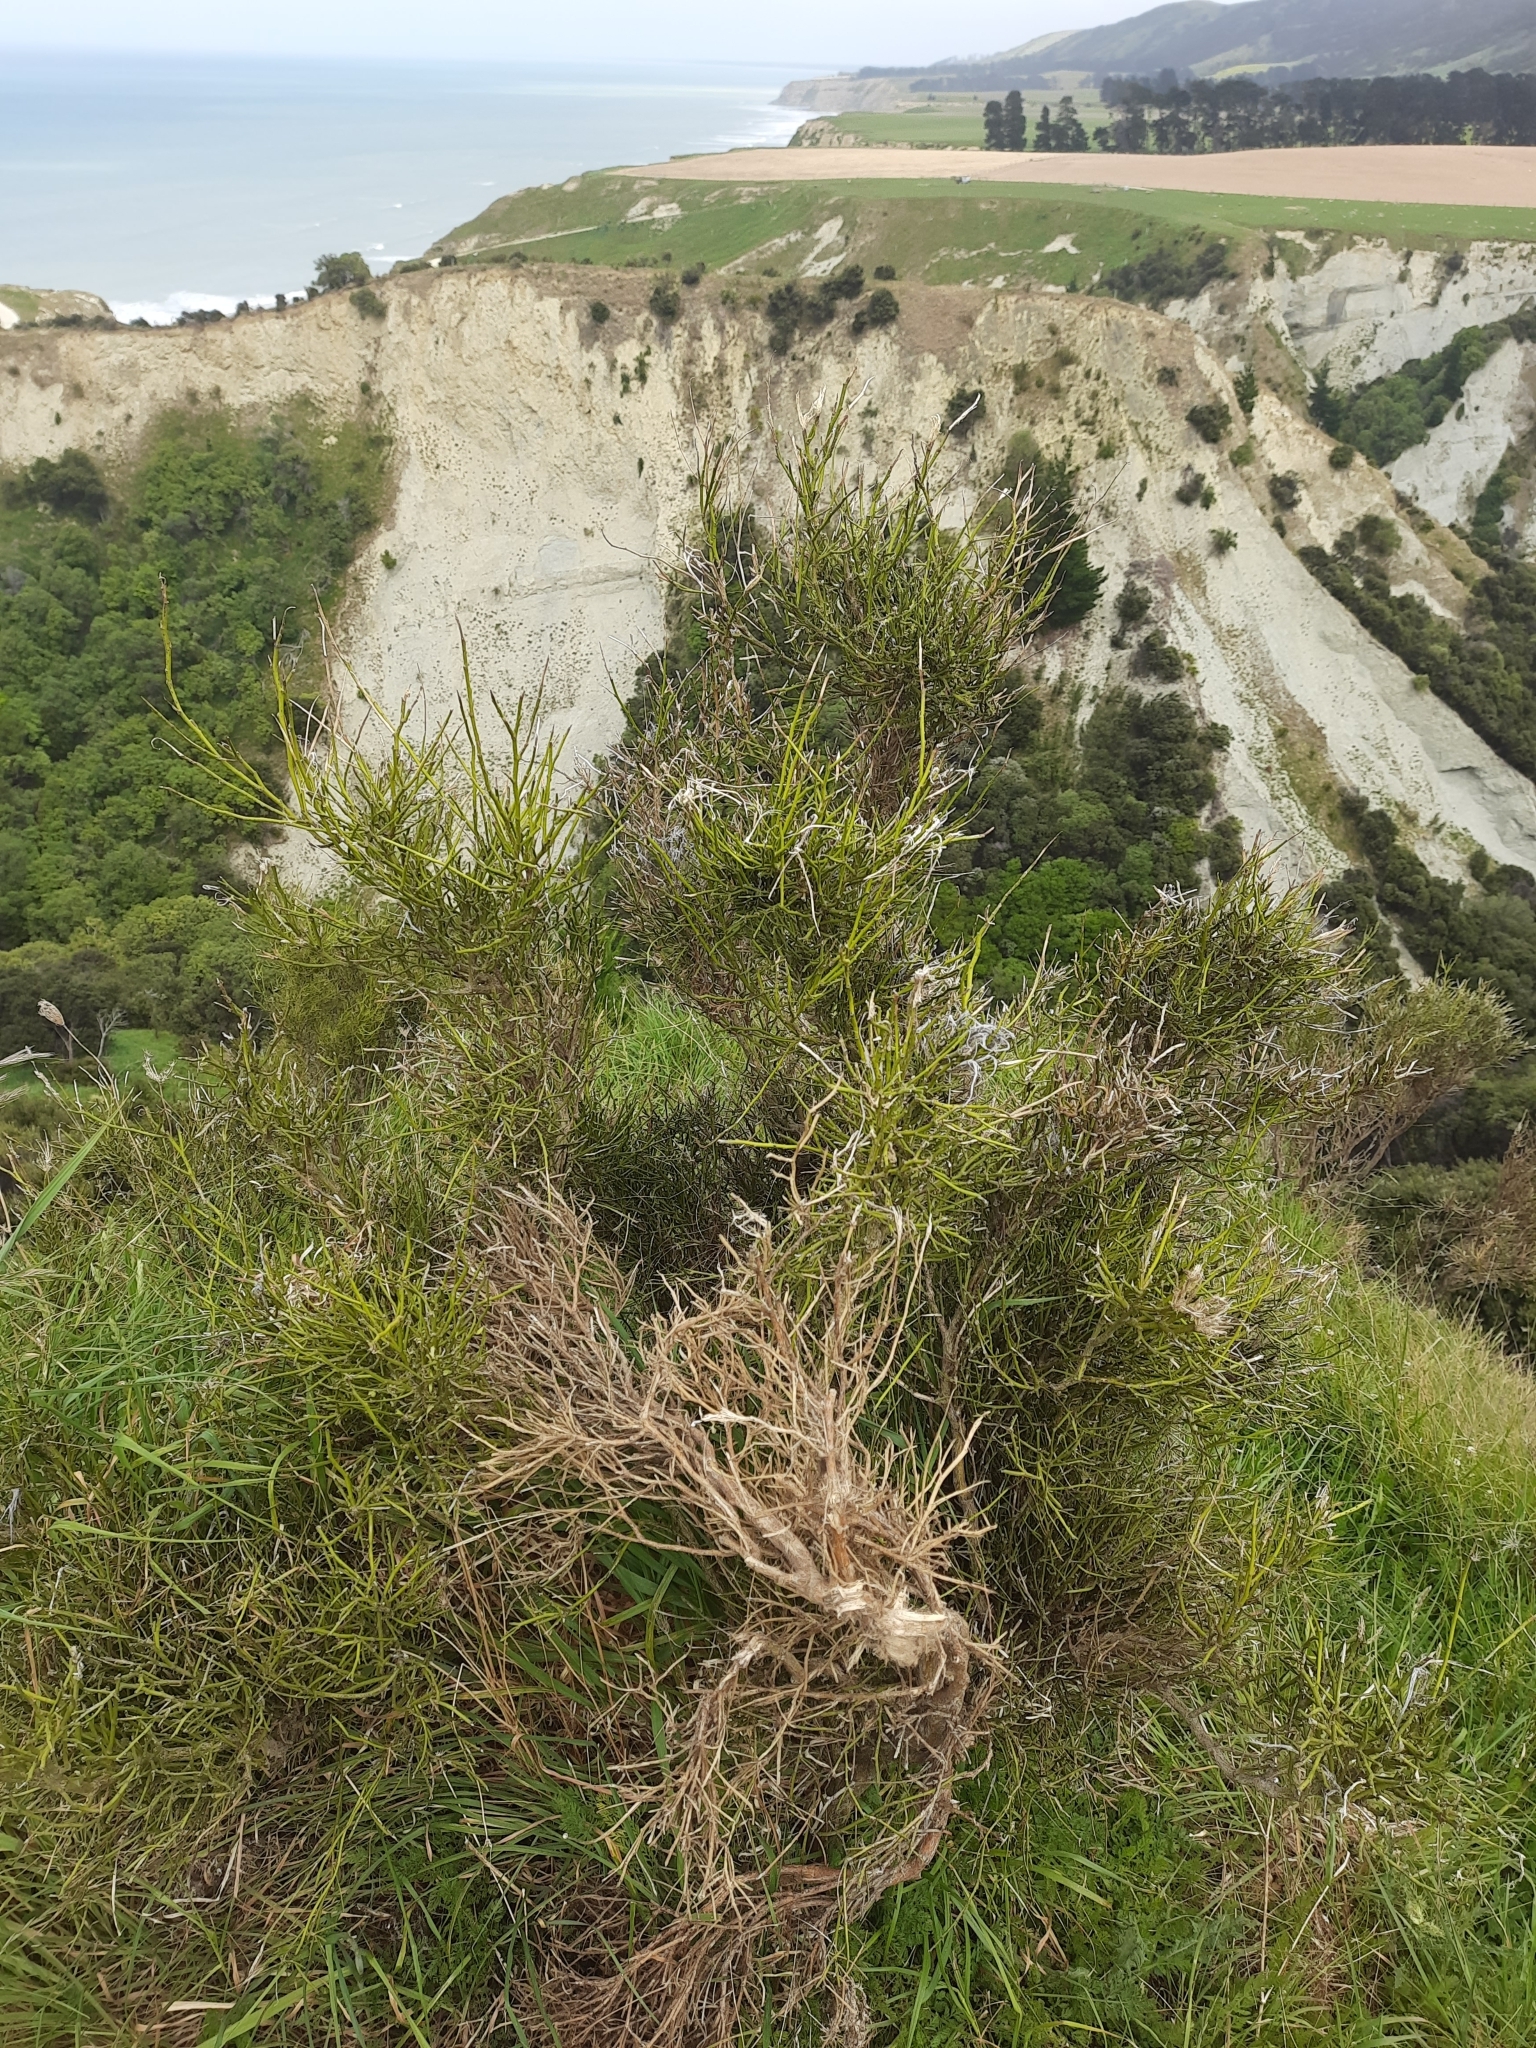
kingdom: Plantae
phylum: Tracheophyta
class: Magnoliopsida
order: Fabales
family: Fabaceae
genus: Carmichaelia
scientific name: Carmichaelia australis
